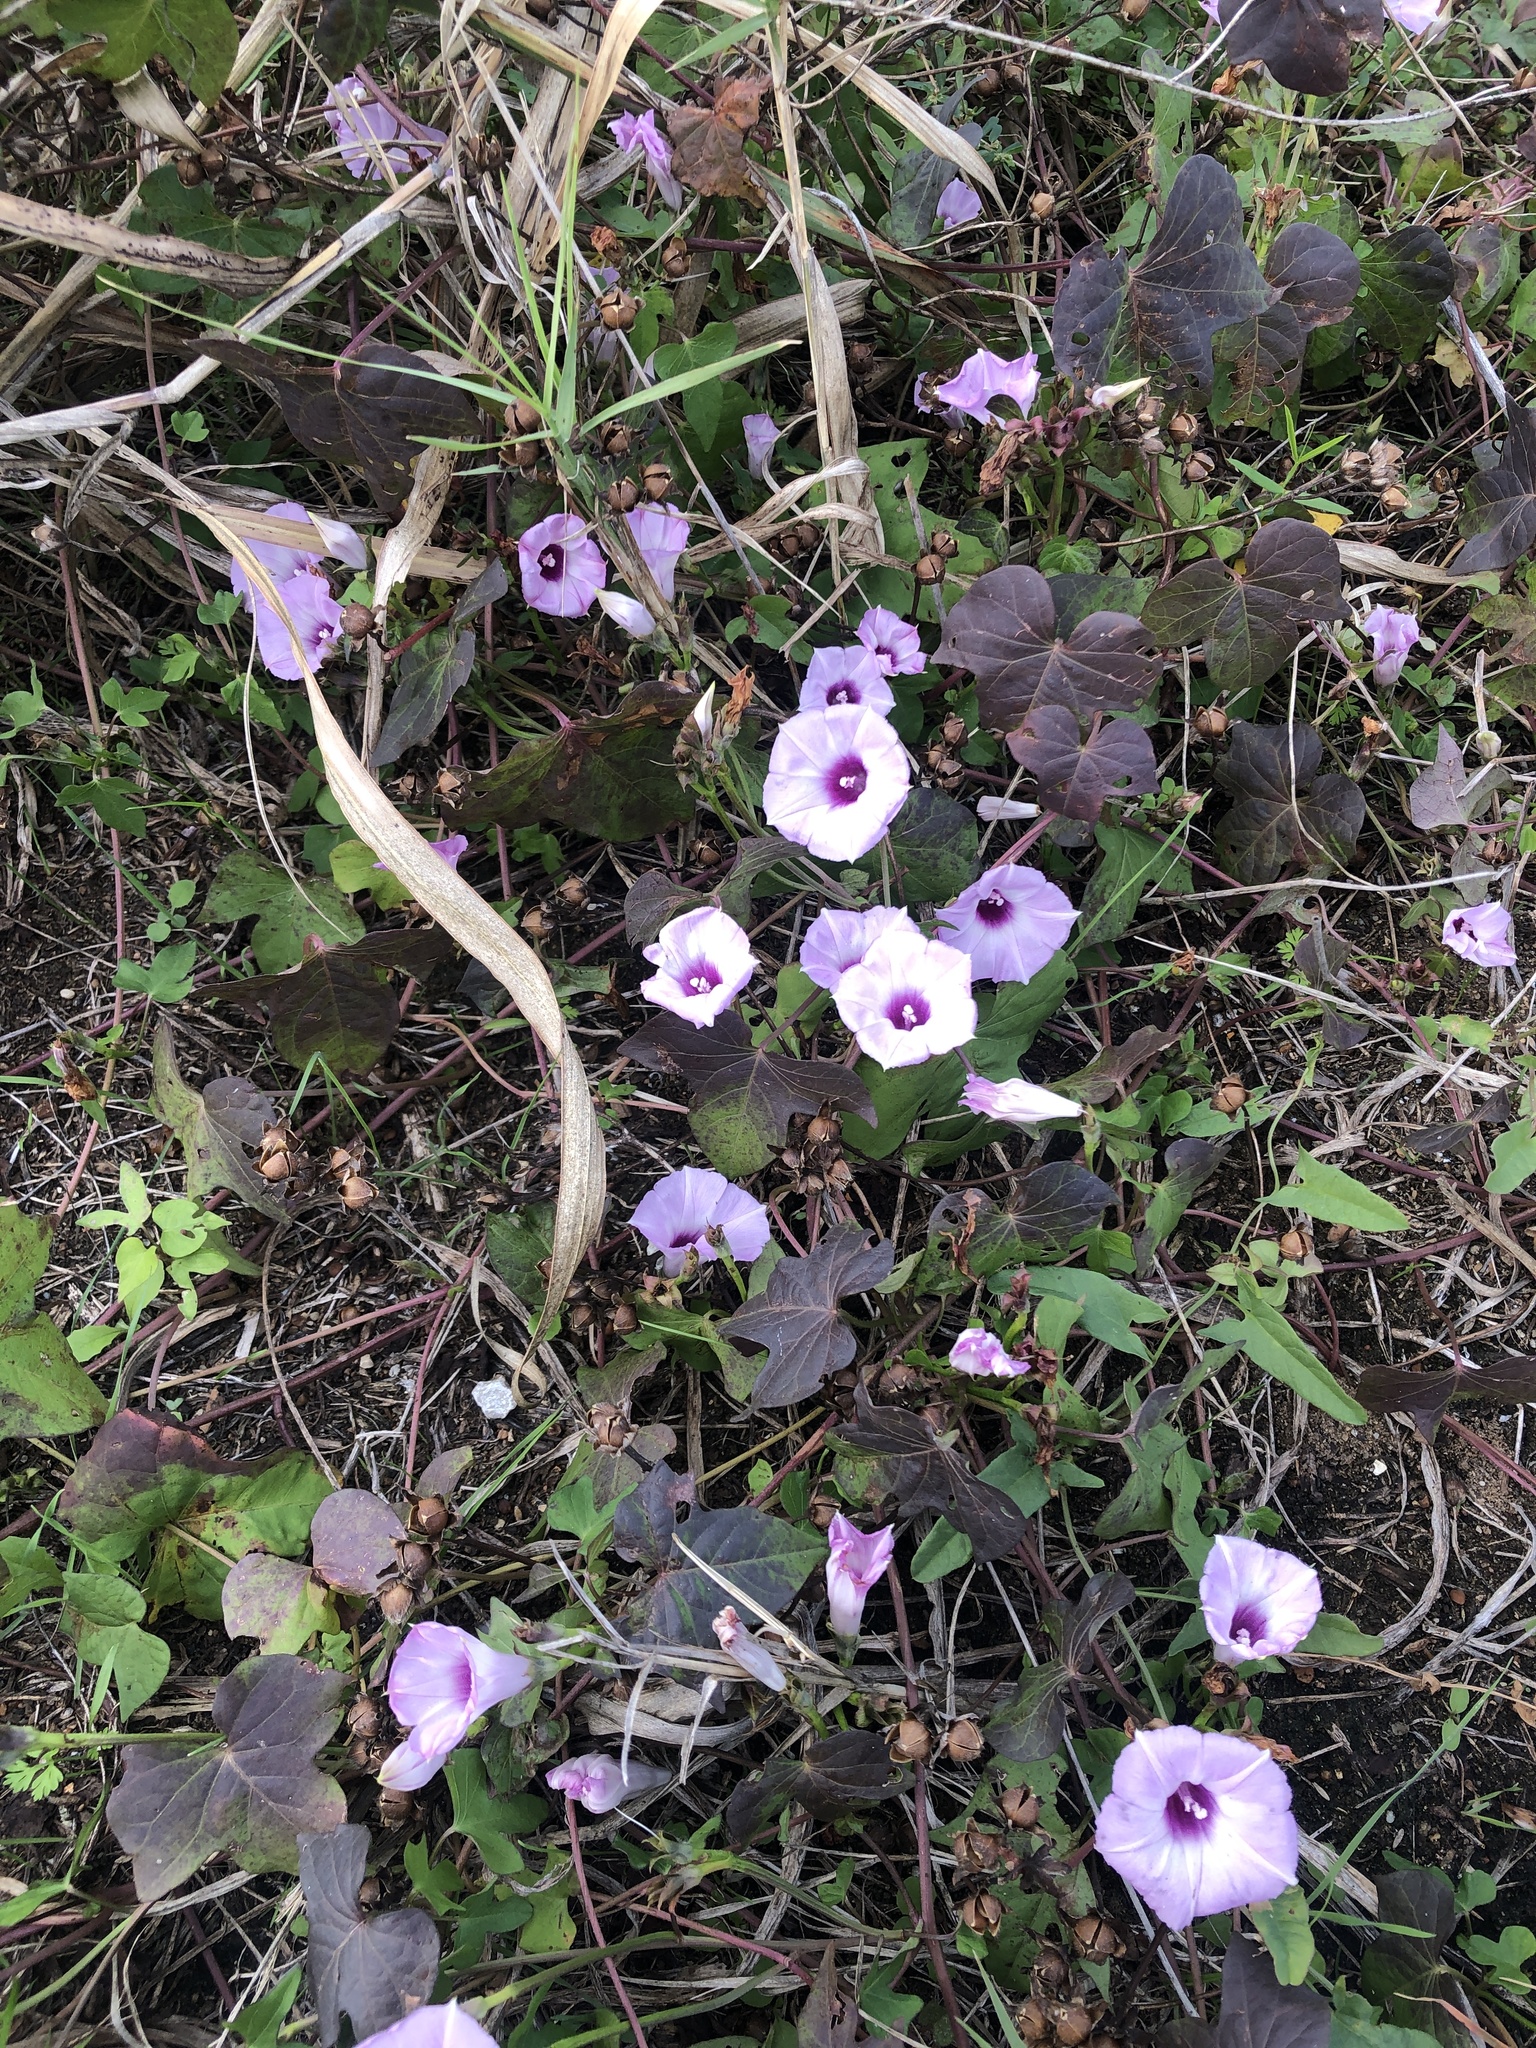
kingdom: Plantae
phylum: Tracheophyta
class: Magnoliopsida
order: Solanales
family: Convolvulaceae
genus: Ipomoea
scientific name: Ipomoea cordatotriloba
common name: Cotton morning glory
